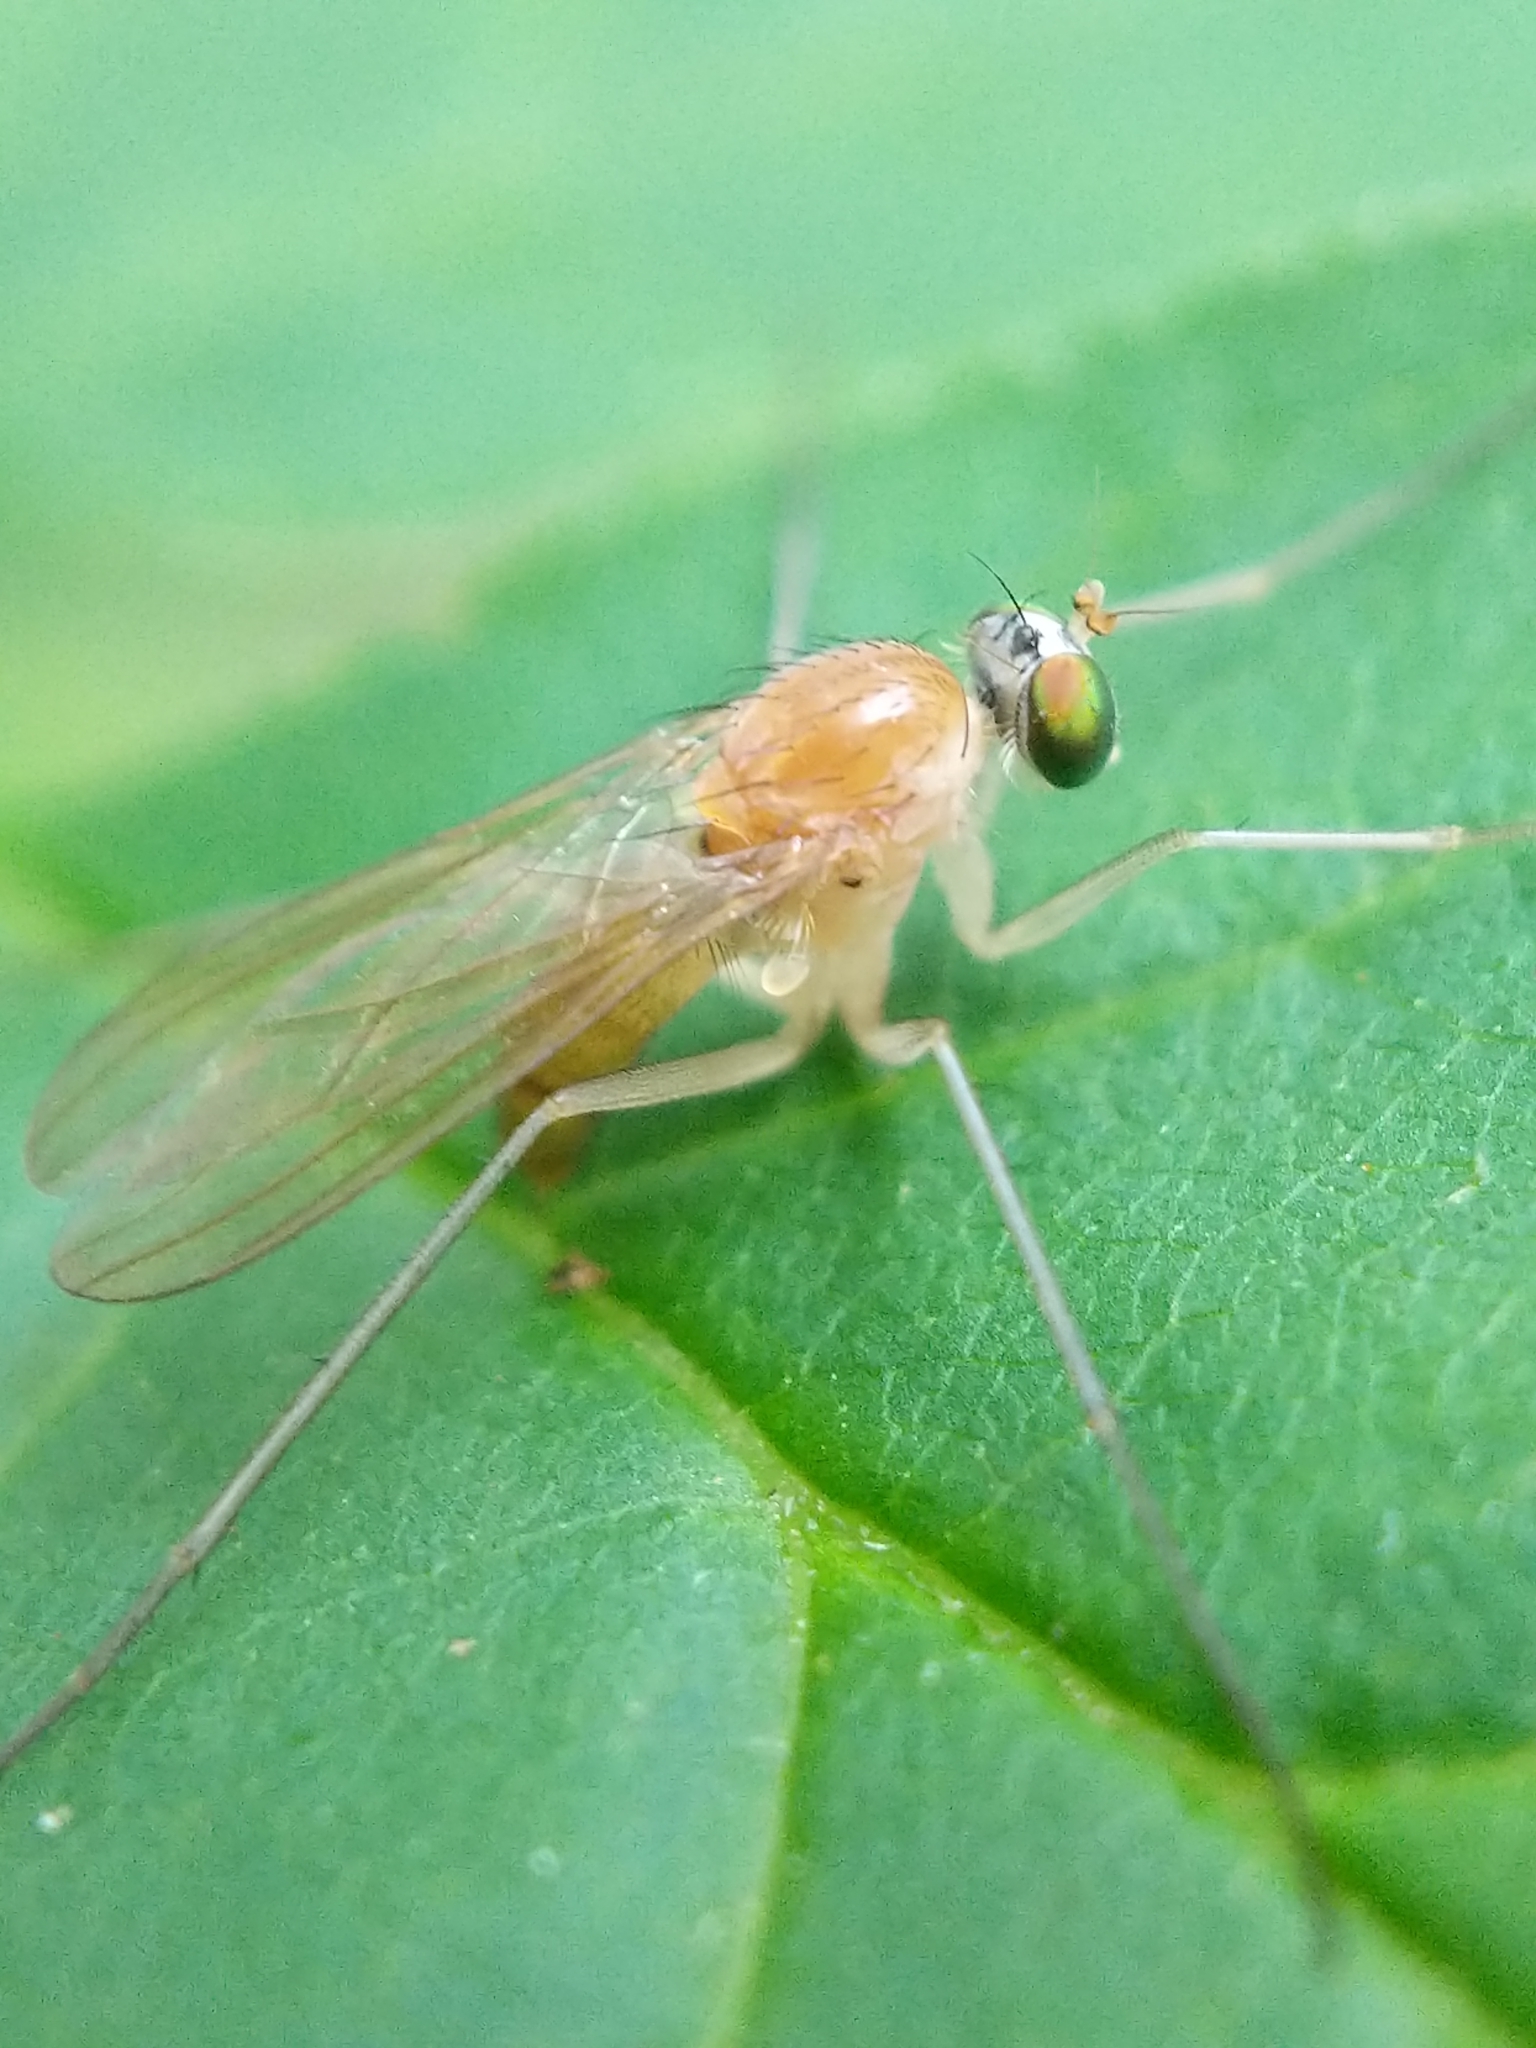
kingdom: Animalia
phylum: Arthropoda
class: Insecta
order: Diptera
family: Dolichopodidae
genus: Neurigona
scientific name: Neurigona disjuncta
